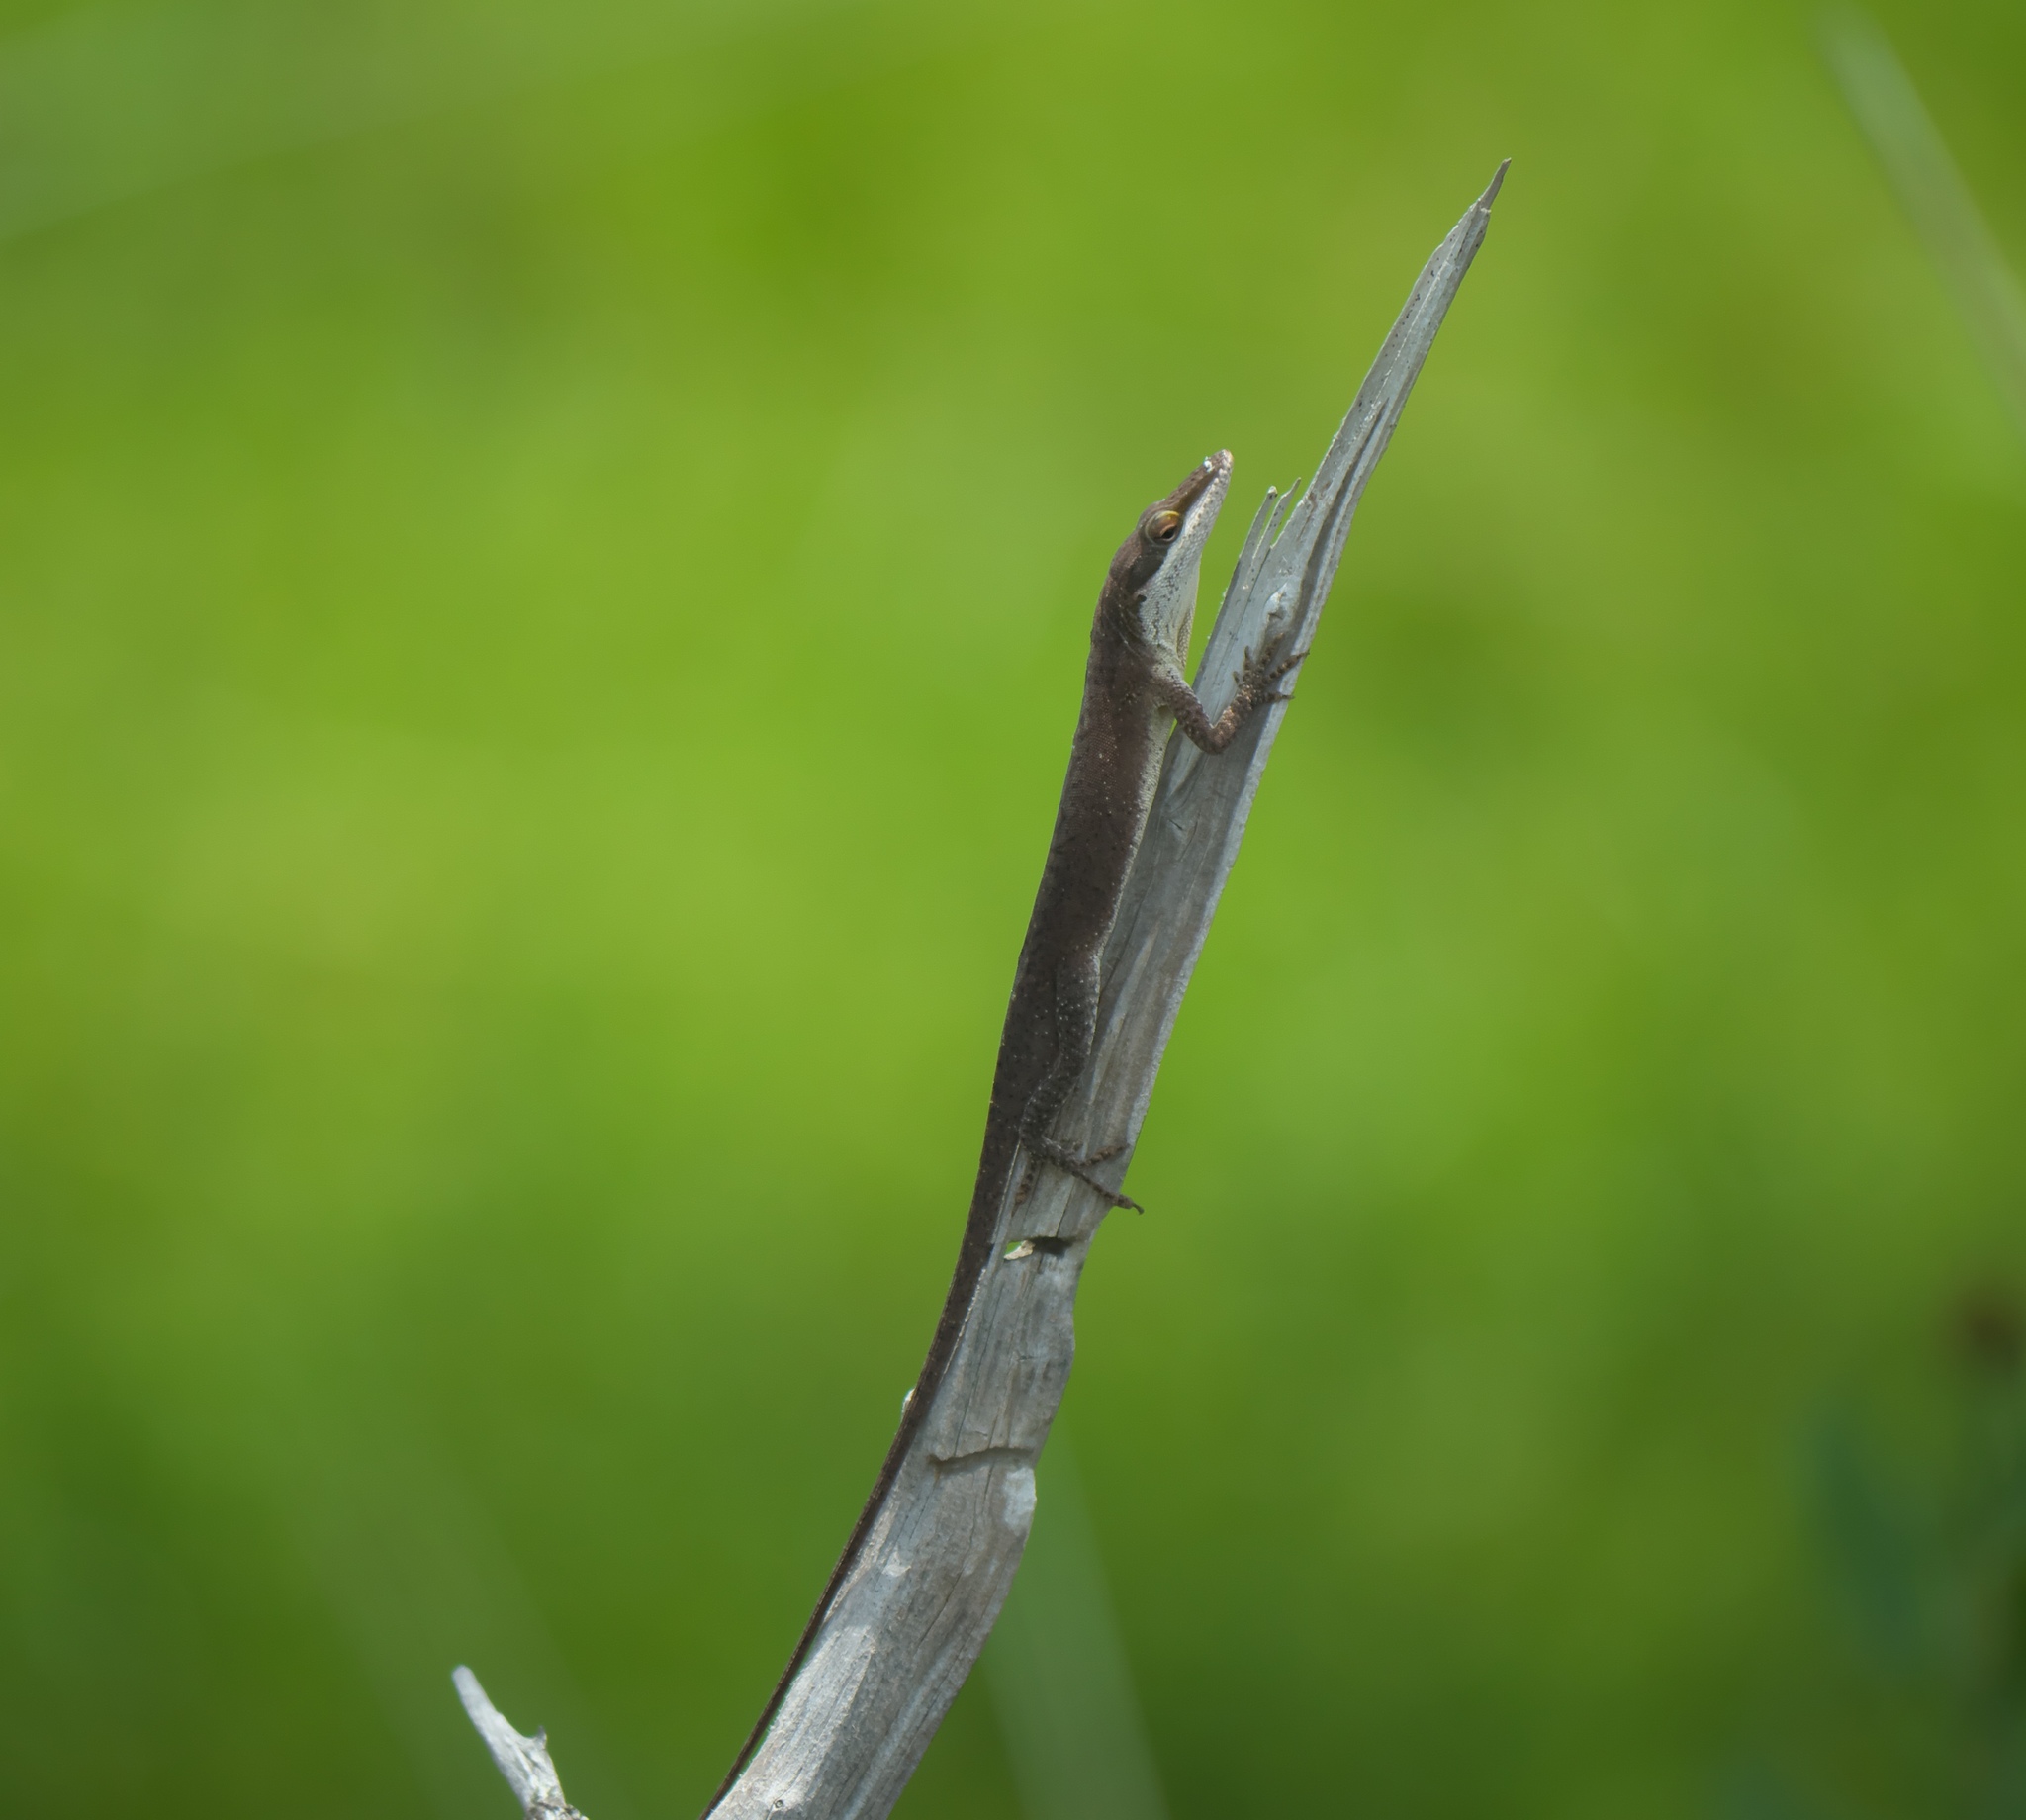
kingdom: Animalia
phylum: Chordata
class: Squamata
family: Dactyloidae
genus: Anolis
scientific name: Anolis carolinensis
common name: Green anole
